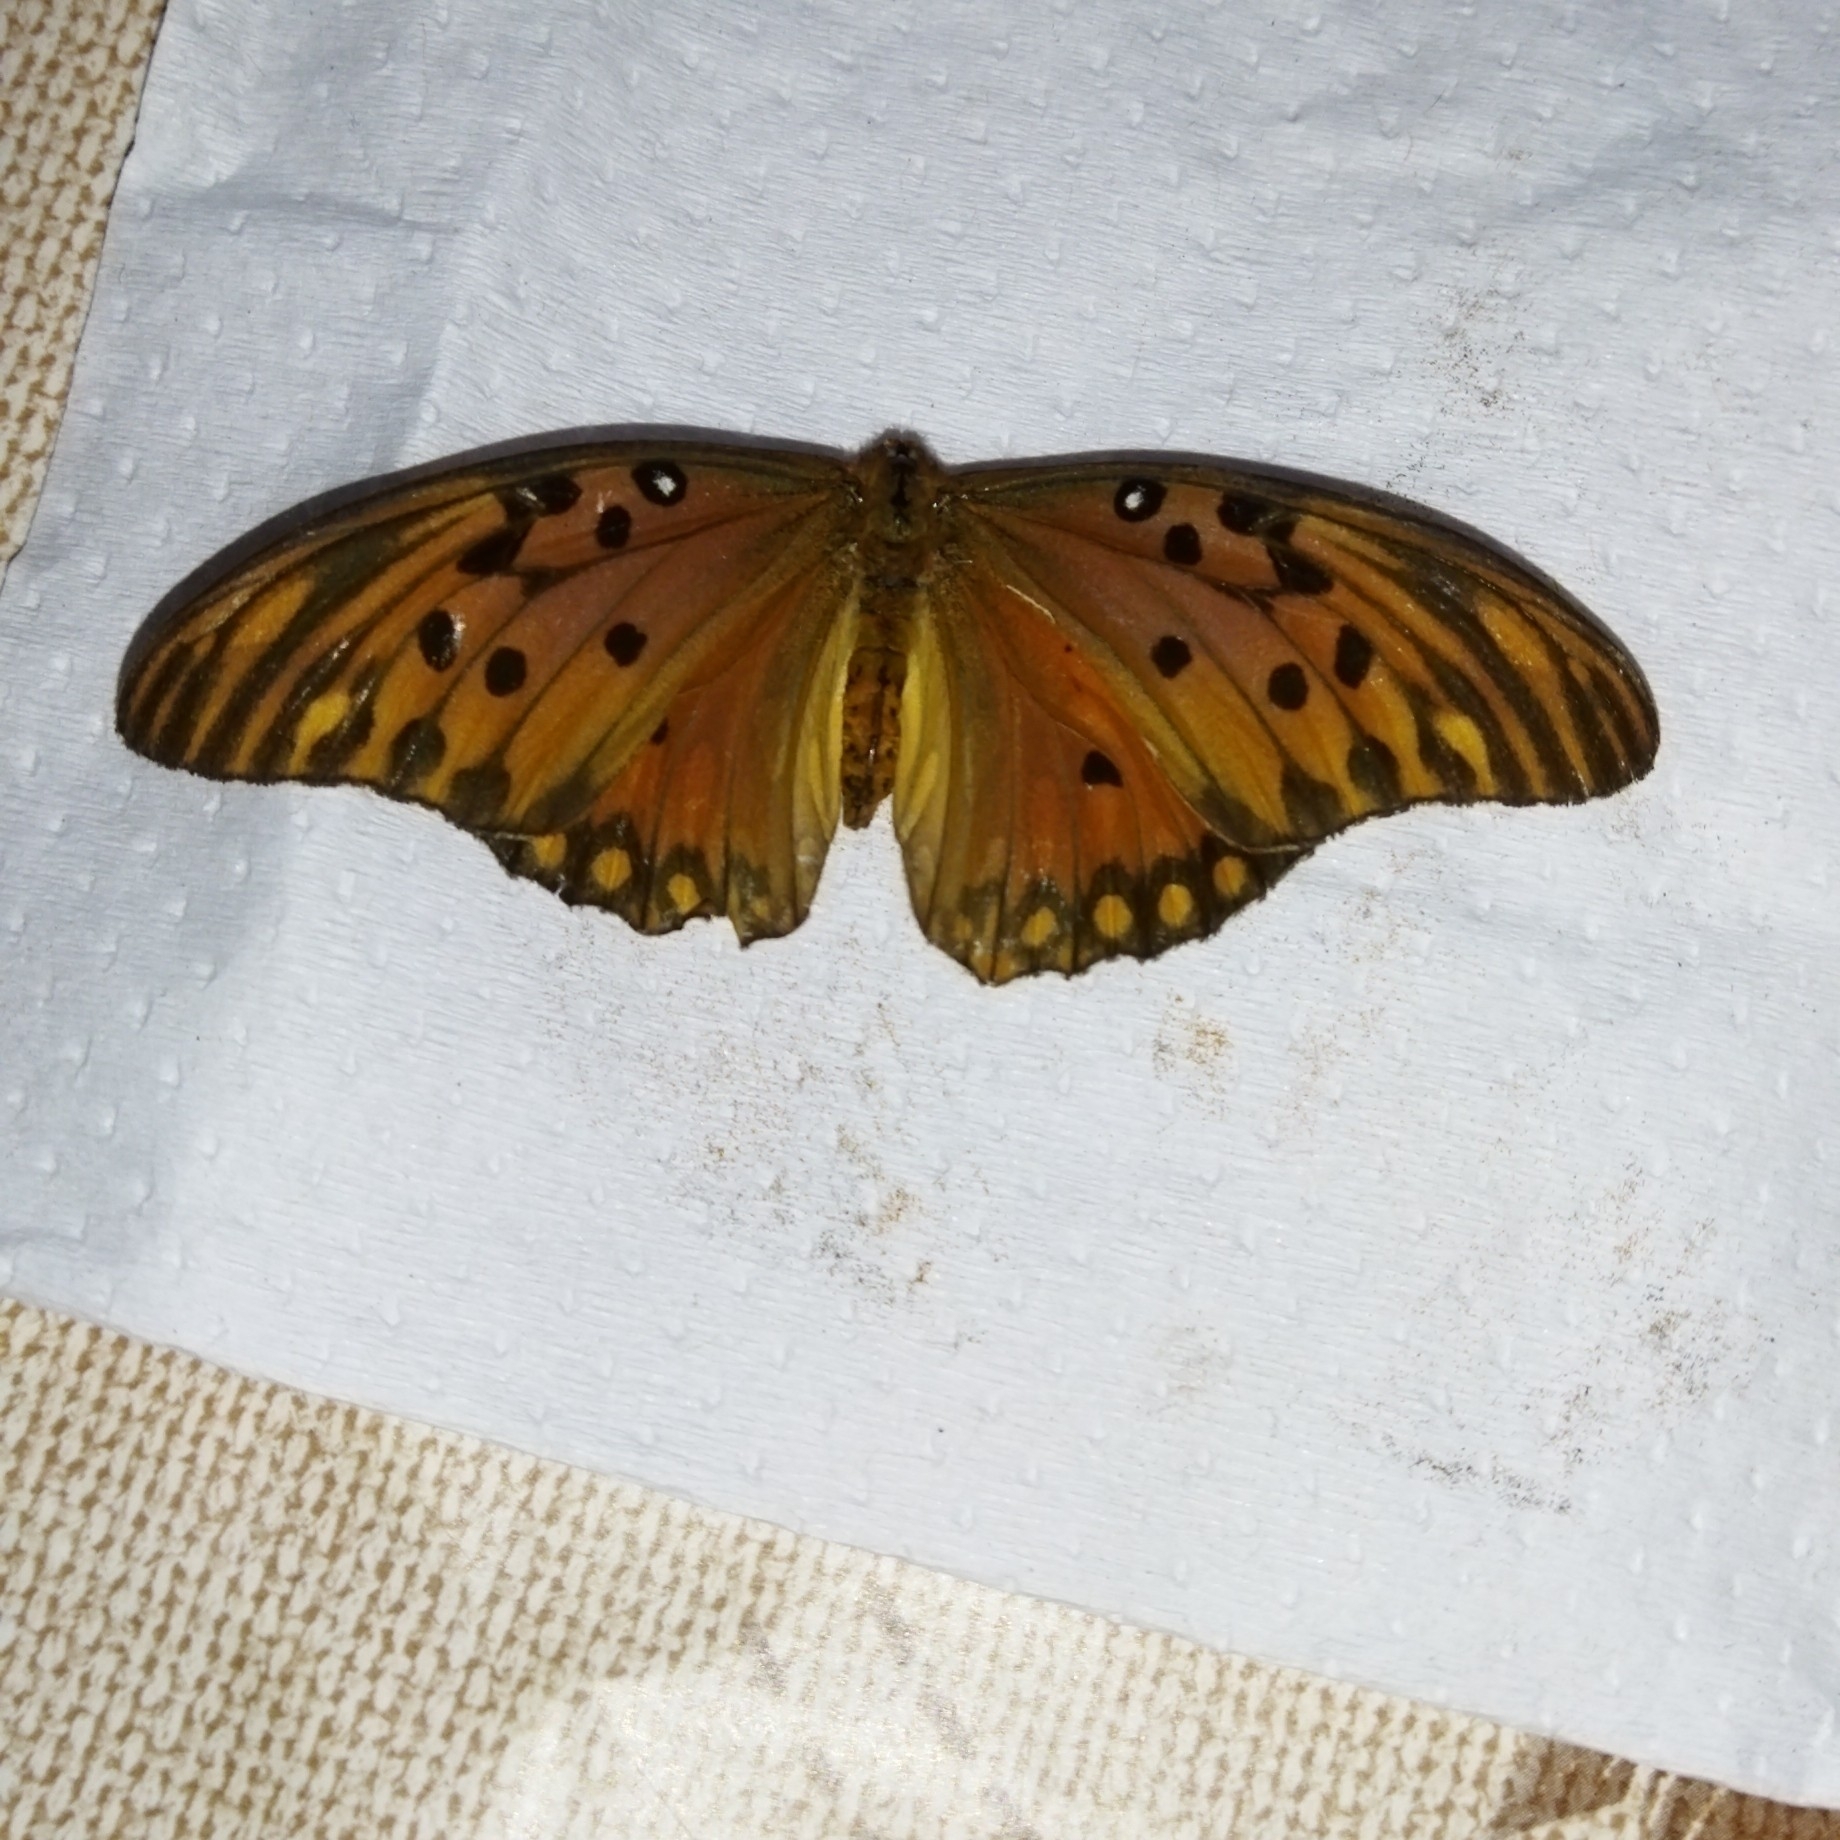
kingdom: Animalia
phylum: Arthropoda
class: Insecta
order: Lepidoptera
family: Nymphalidae
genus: Dione
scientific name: Dione vanillae
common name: Gulf fritillary
